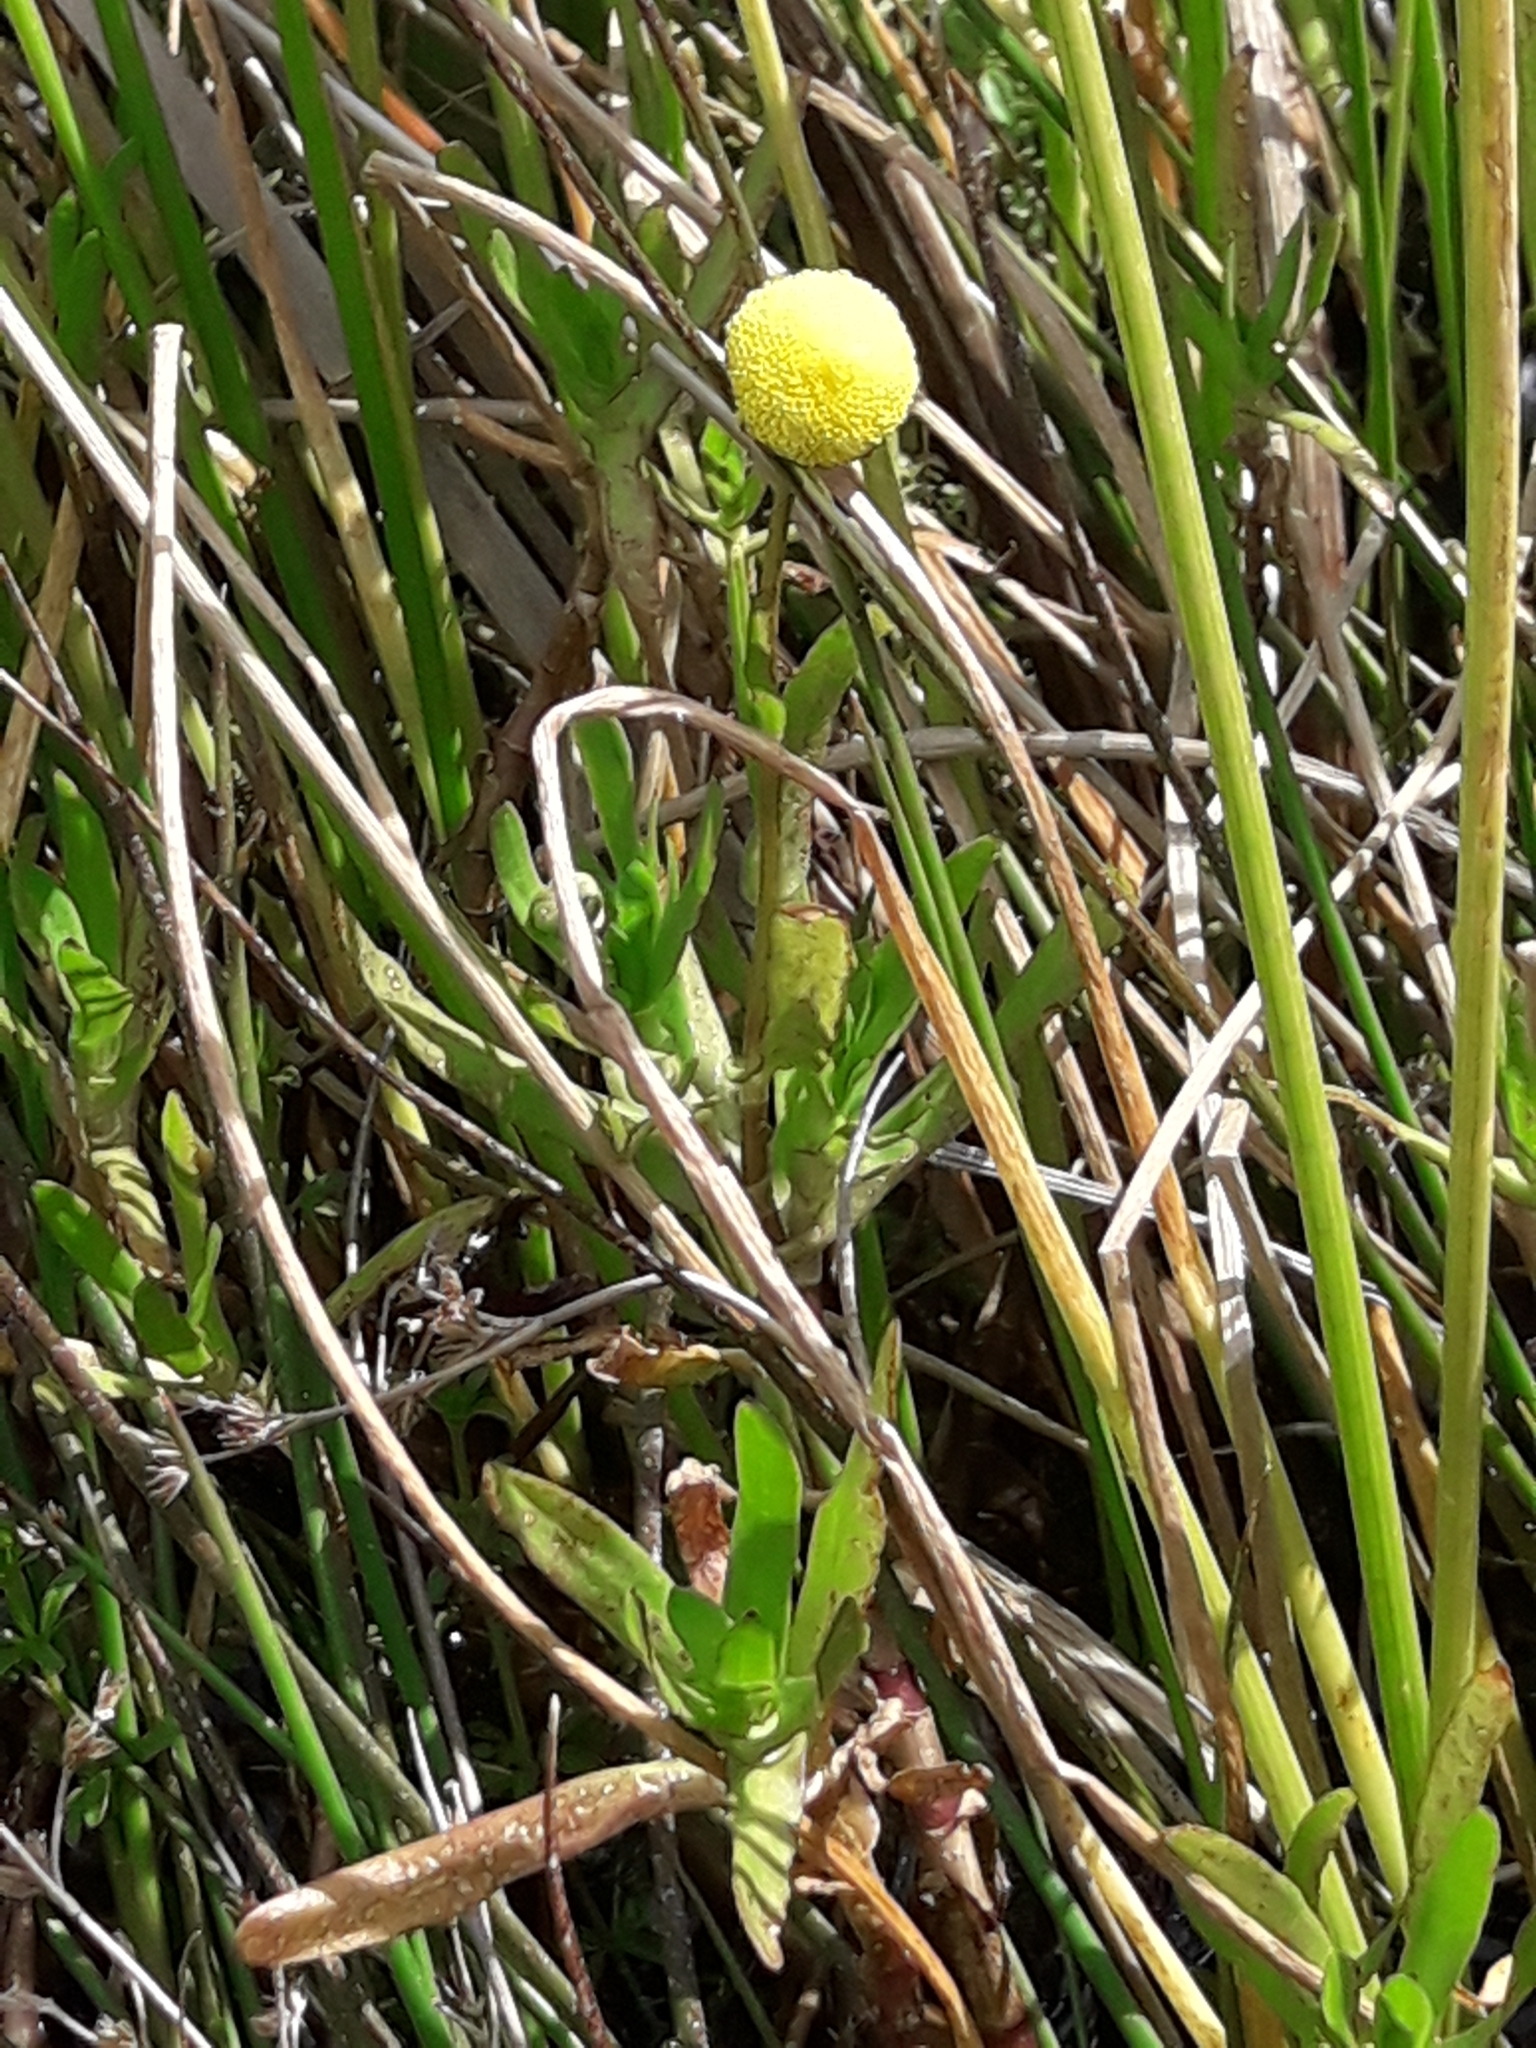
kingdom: Plantae
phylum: Tracheophyta
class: Magnoliopsida
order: Asterales
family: Asteraceae
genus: Cotula
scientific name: Cotula coronopifolia
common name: Buttonweed
